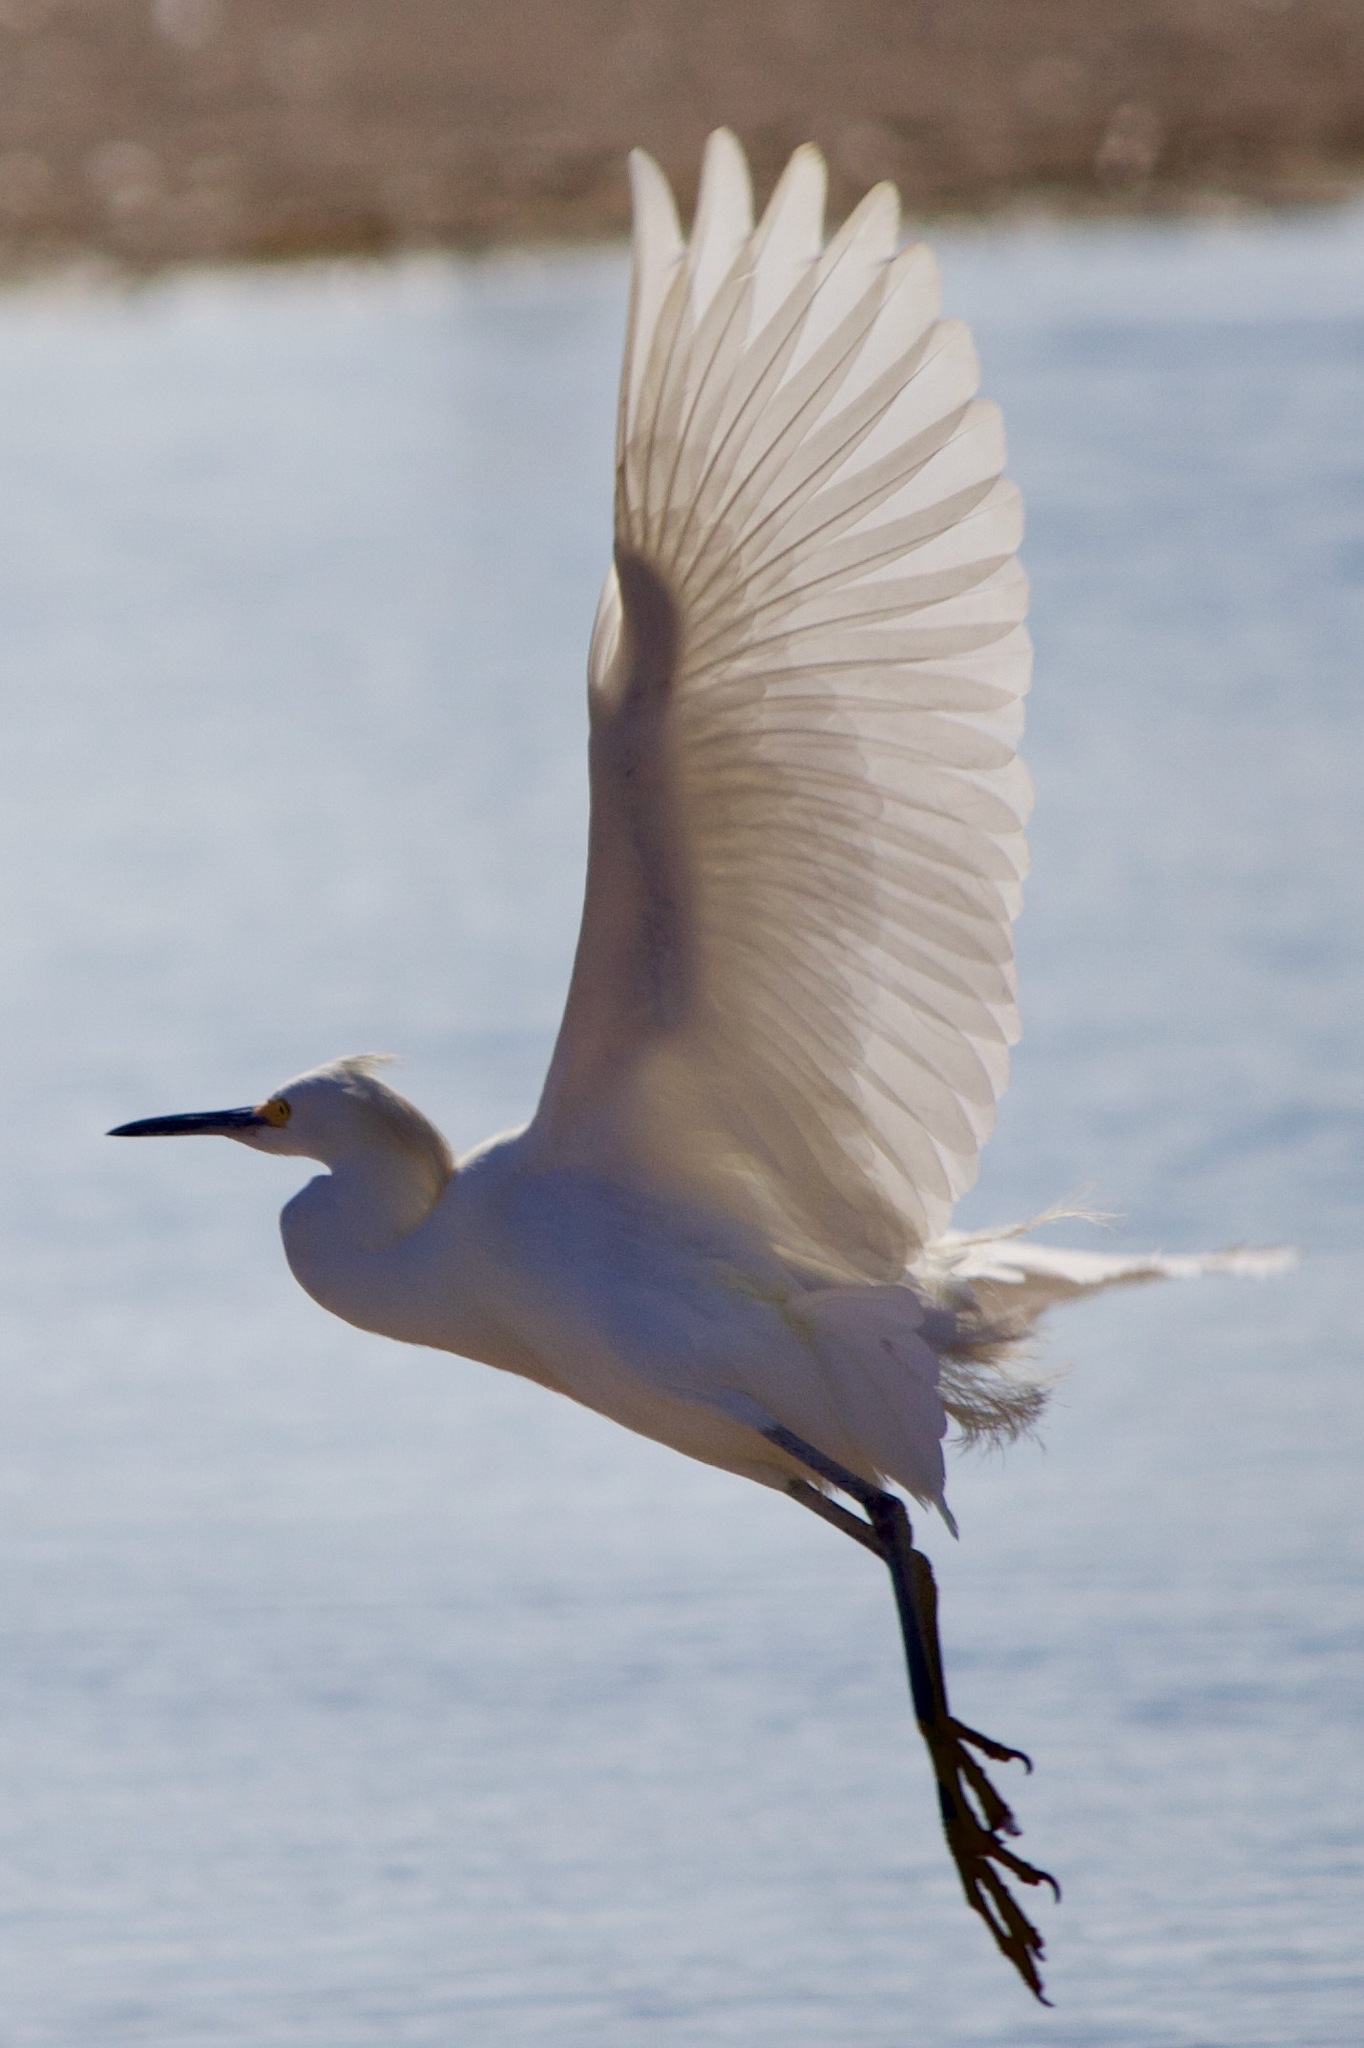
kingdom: Animalia
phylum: Chordata
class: Aves
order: Pelecaniformes
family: Ardeidae
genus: Egretta
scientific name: Egretta thula
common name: Snowy egret
